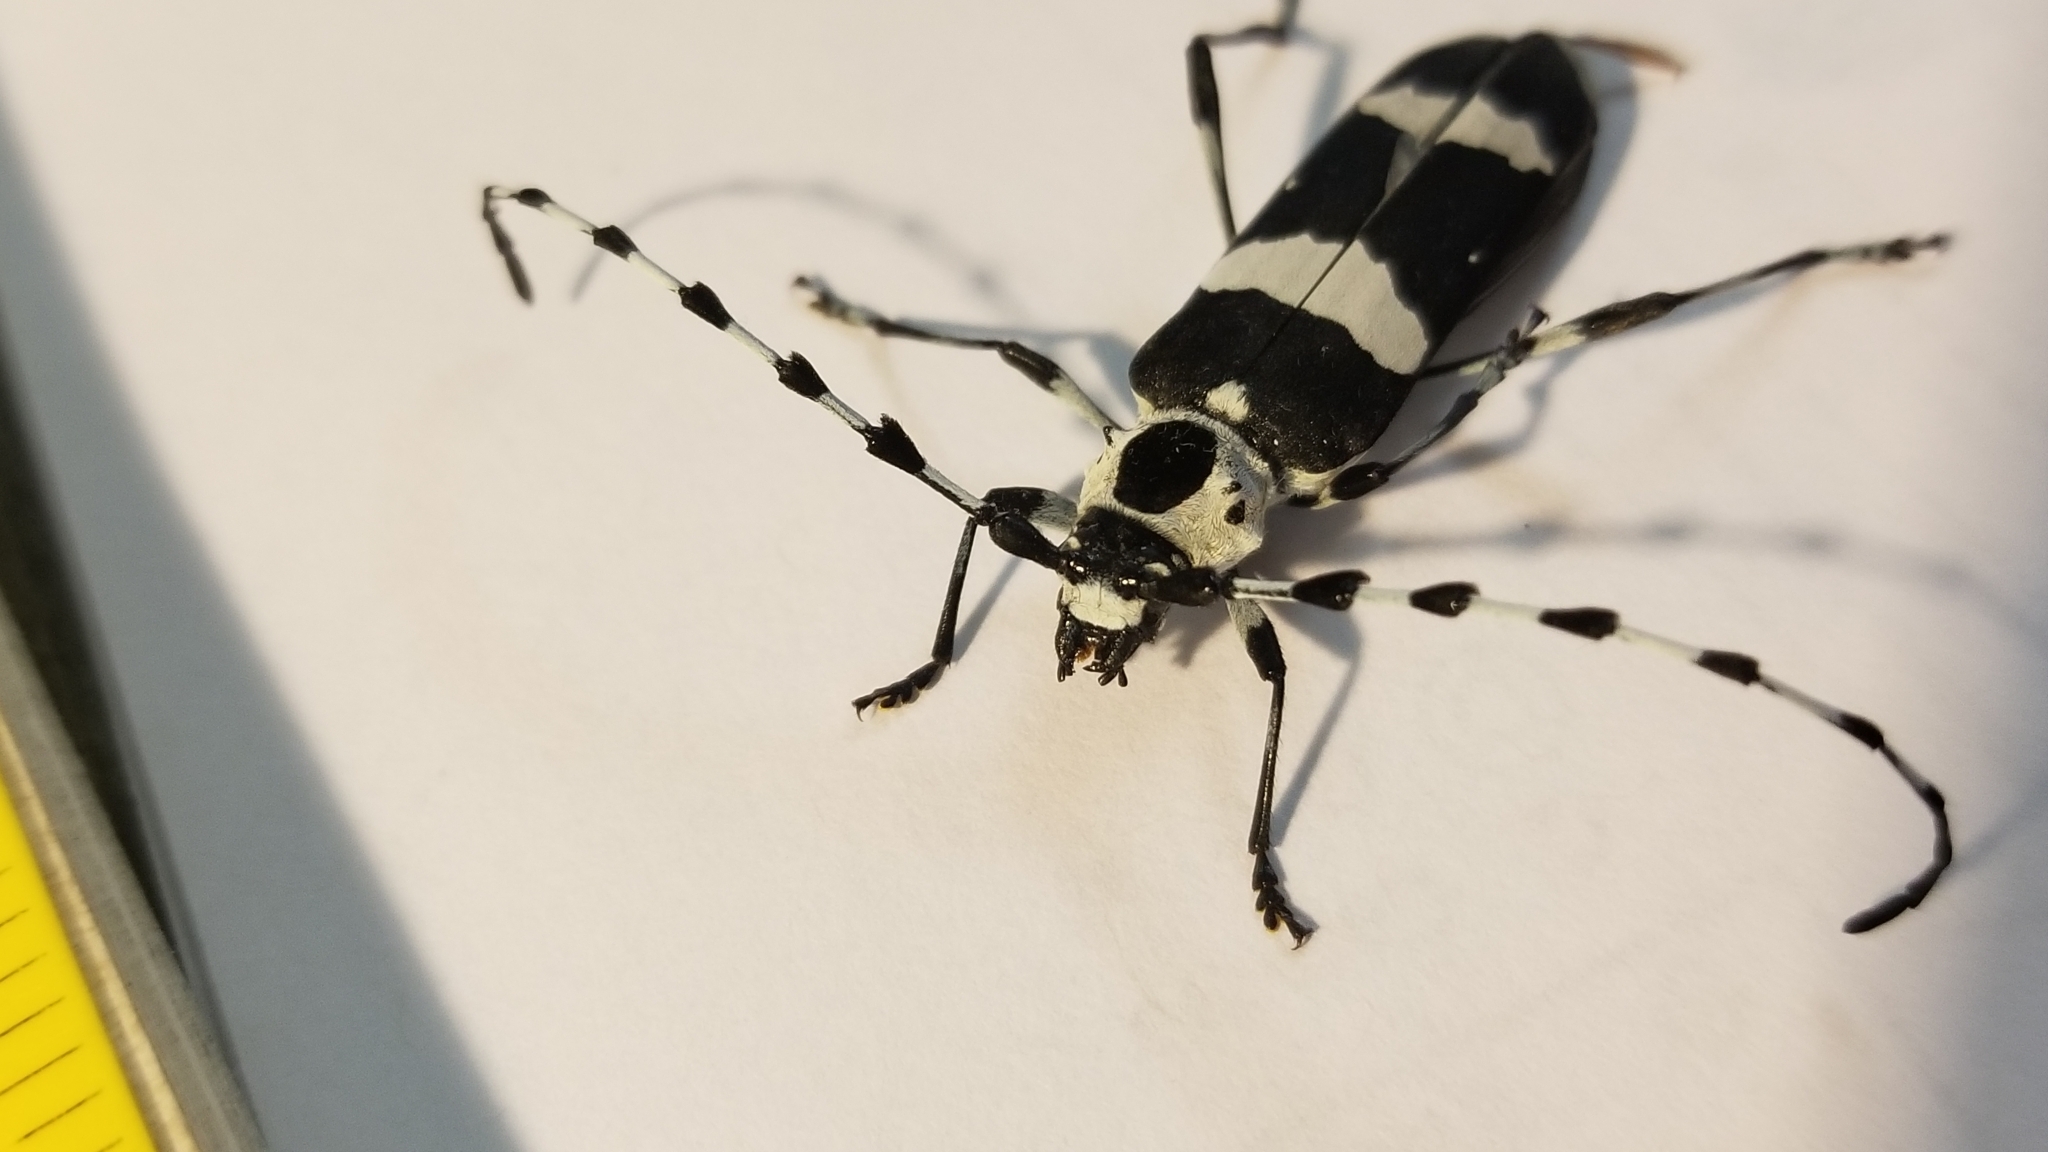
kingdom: Animalia
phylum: Arthropoda
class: Insecta
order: Coleoptera
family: Cerambycidae
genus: Rosalia
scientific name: Rosalia funebris
